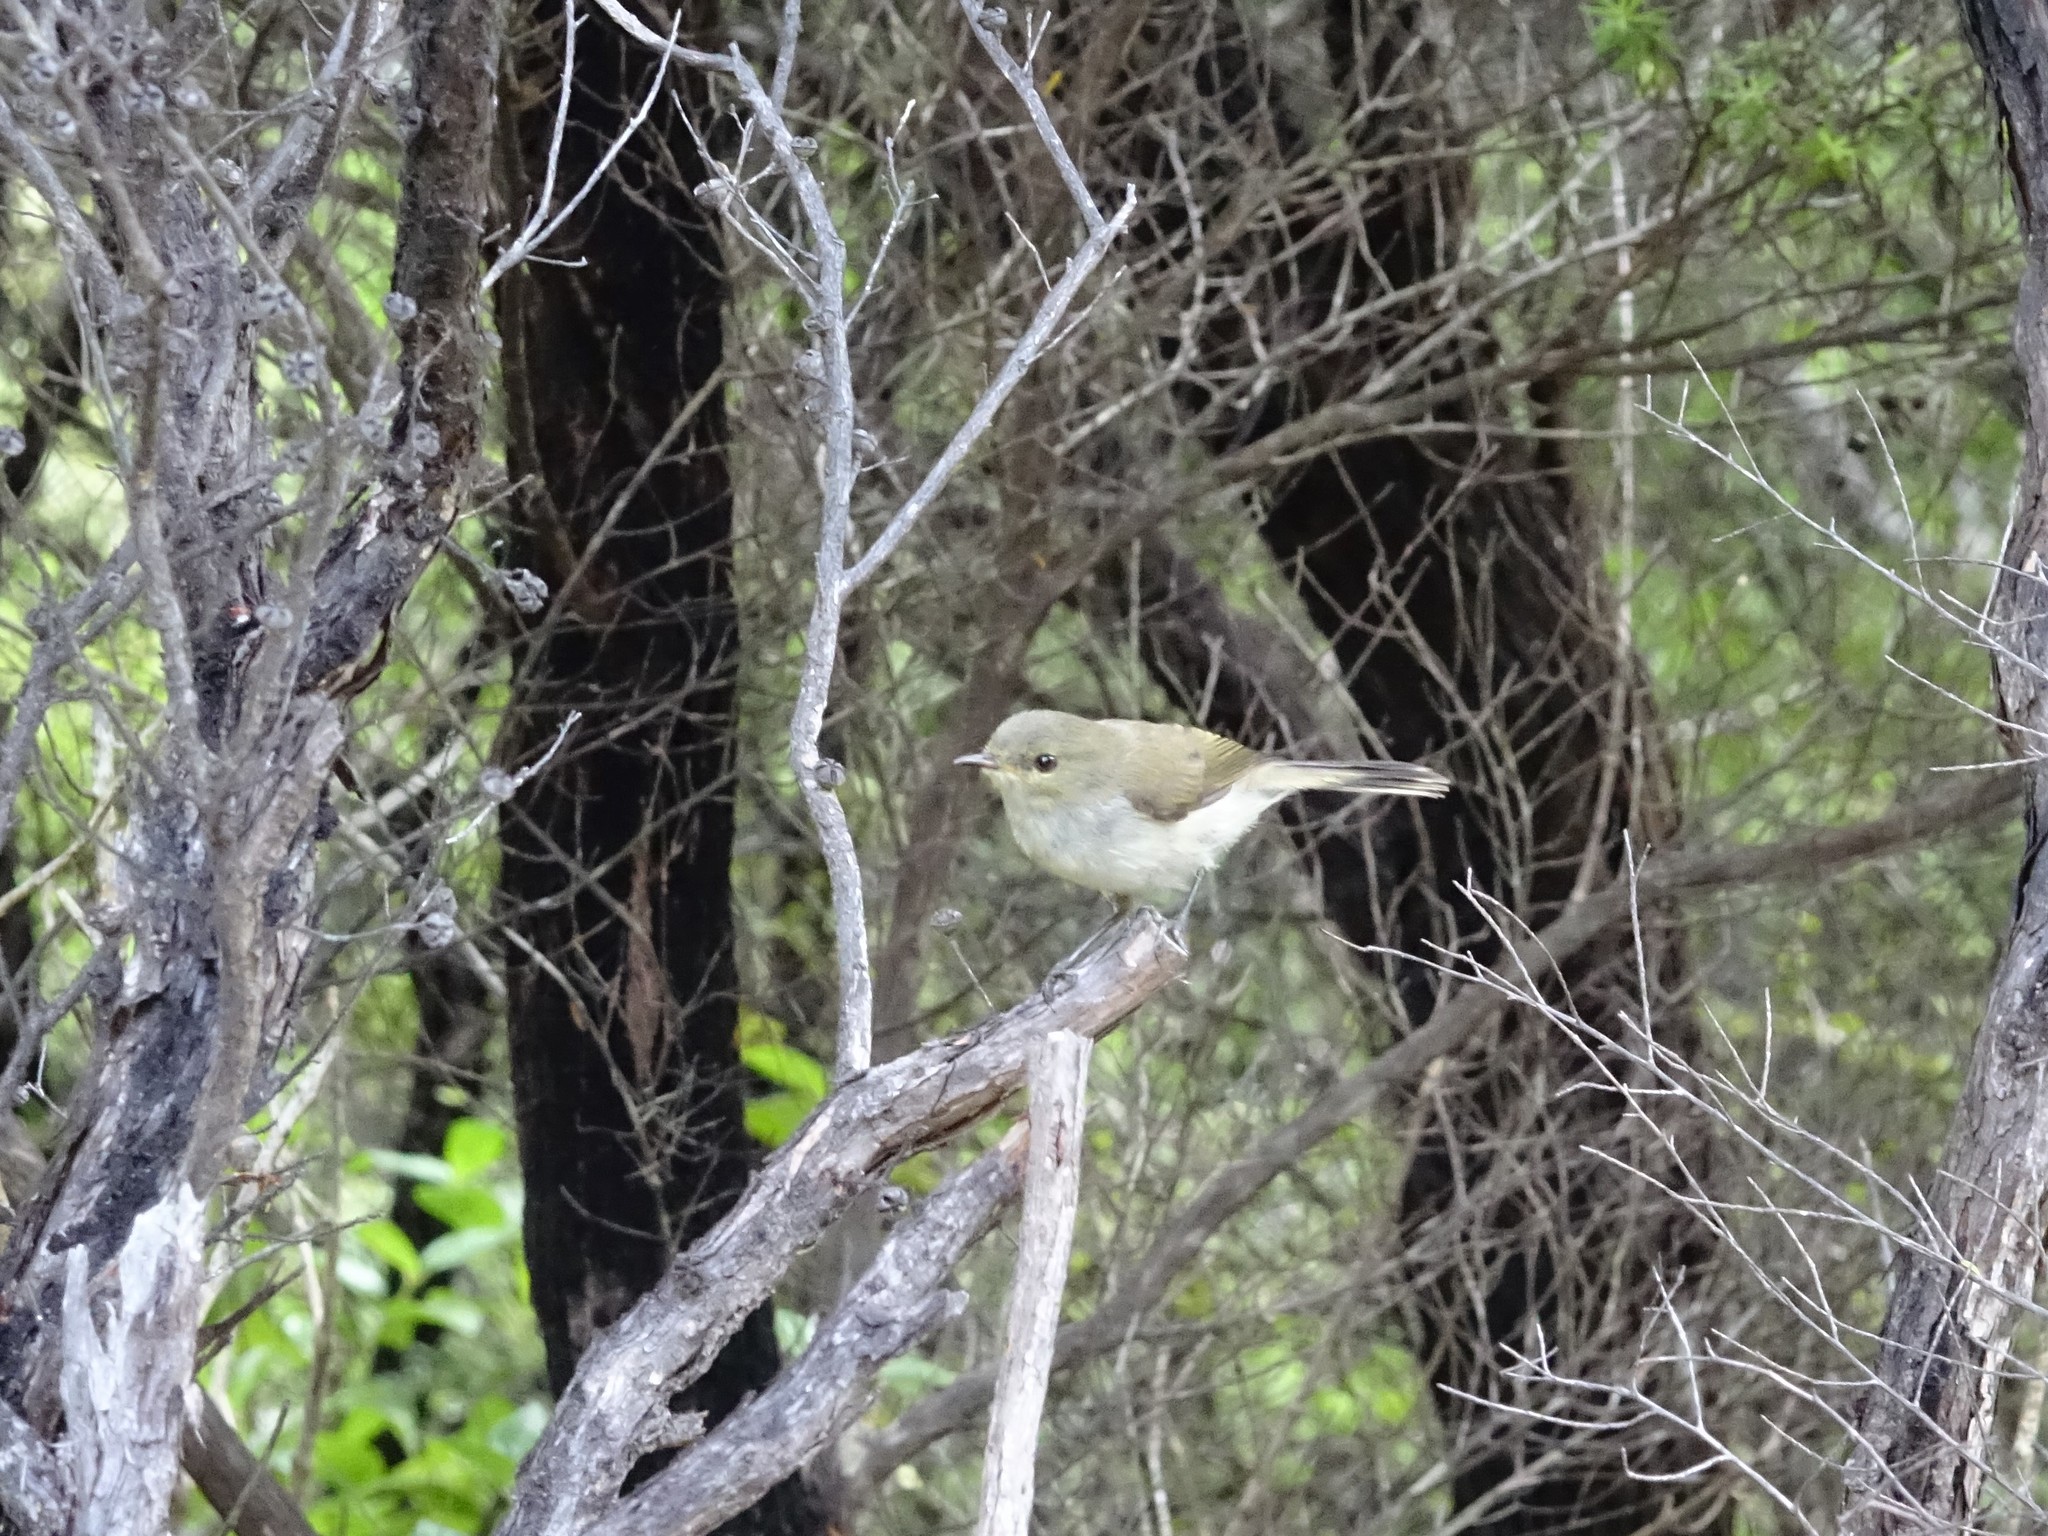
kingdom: Animalia
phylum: Chordata
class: Aves
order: Passeriformes
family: Acanthizidae
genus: Gerygone
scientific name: Gerygone igata
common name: Grey gerygone
